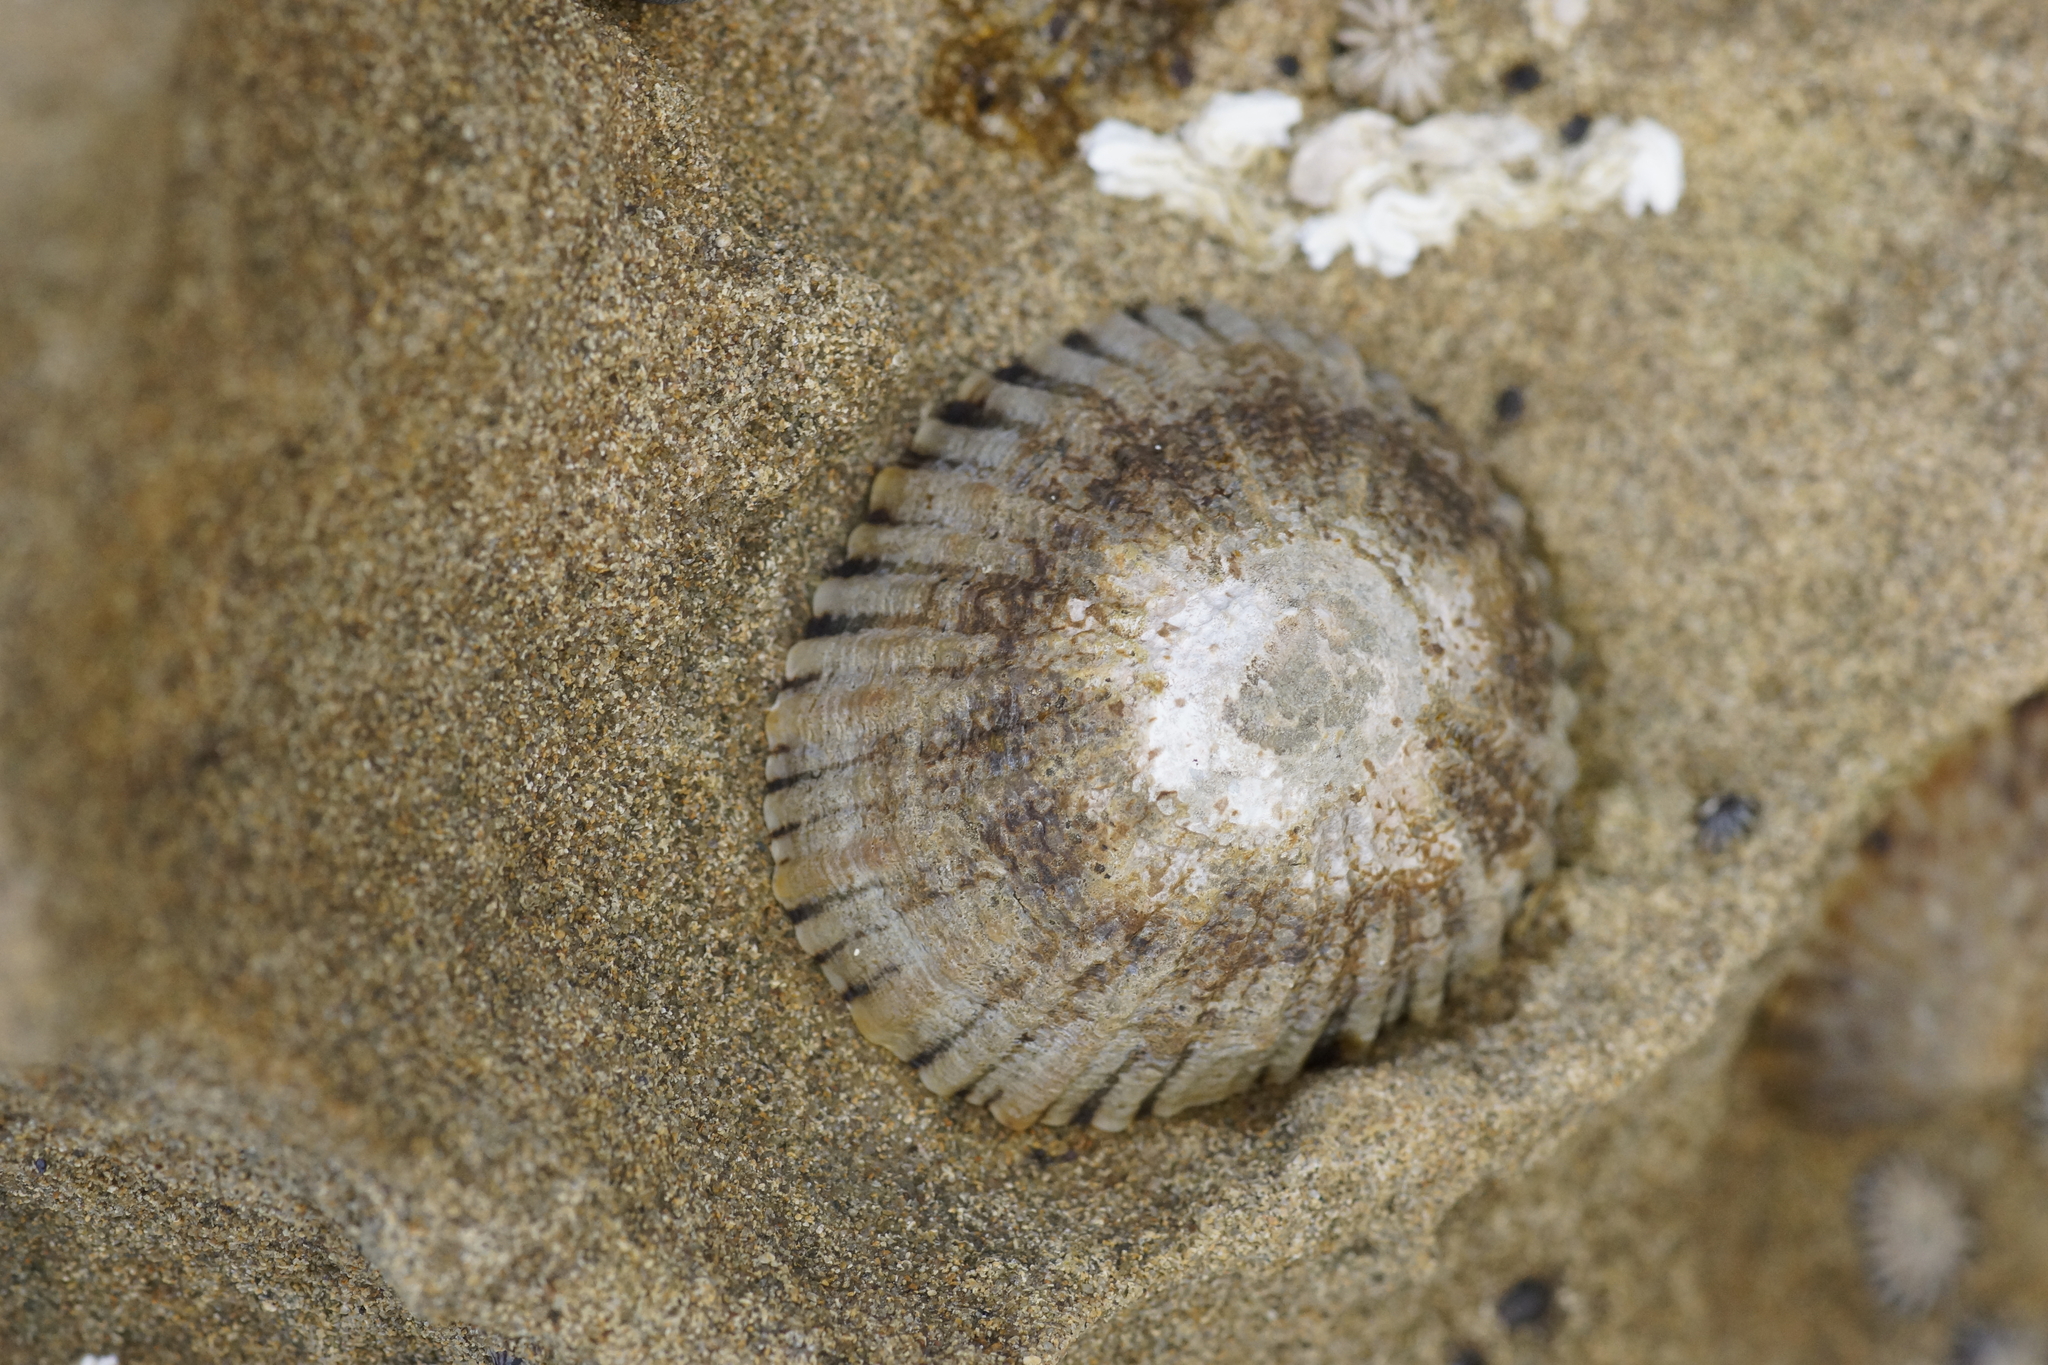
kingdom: Animalia
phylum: Mollusca
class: Gastropoda
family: Nacellidae
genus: Cellana
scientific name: Cellana tramoserica
